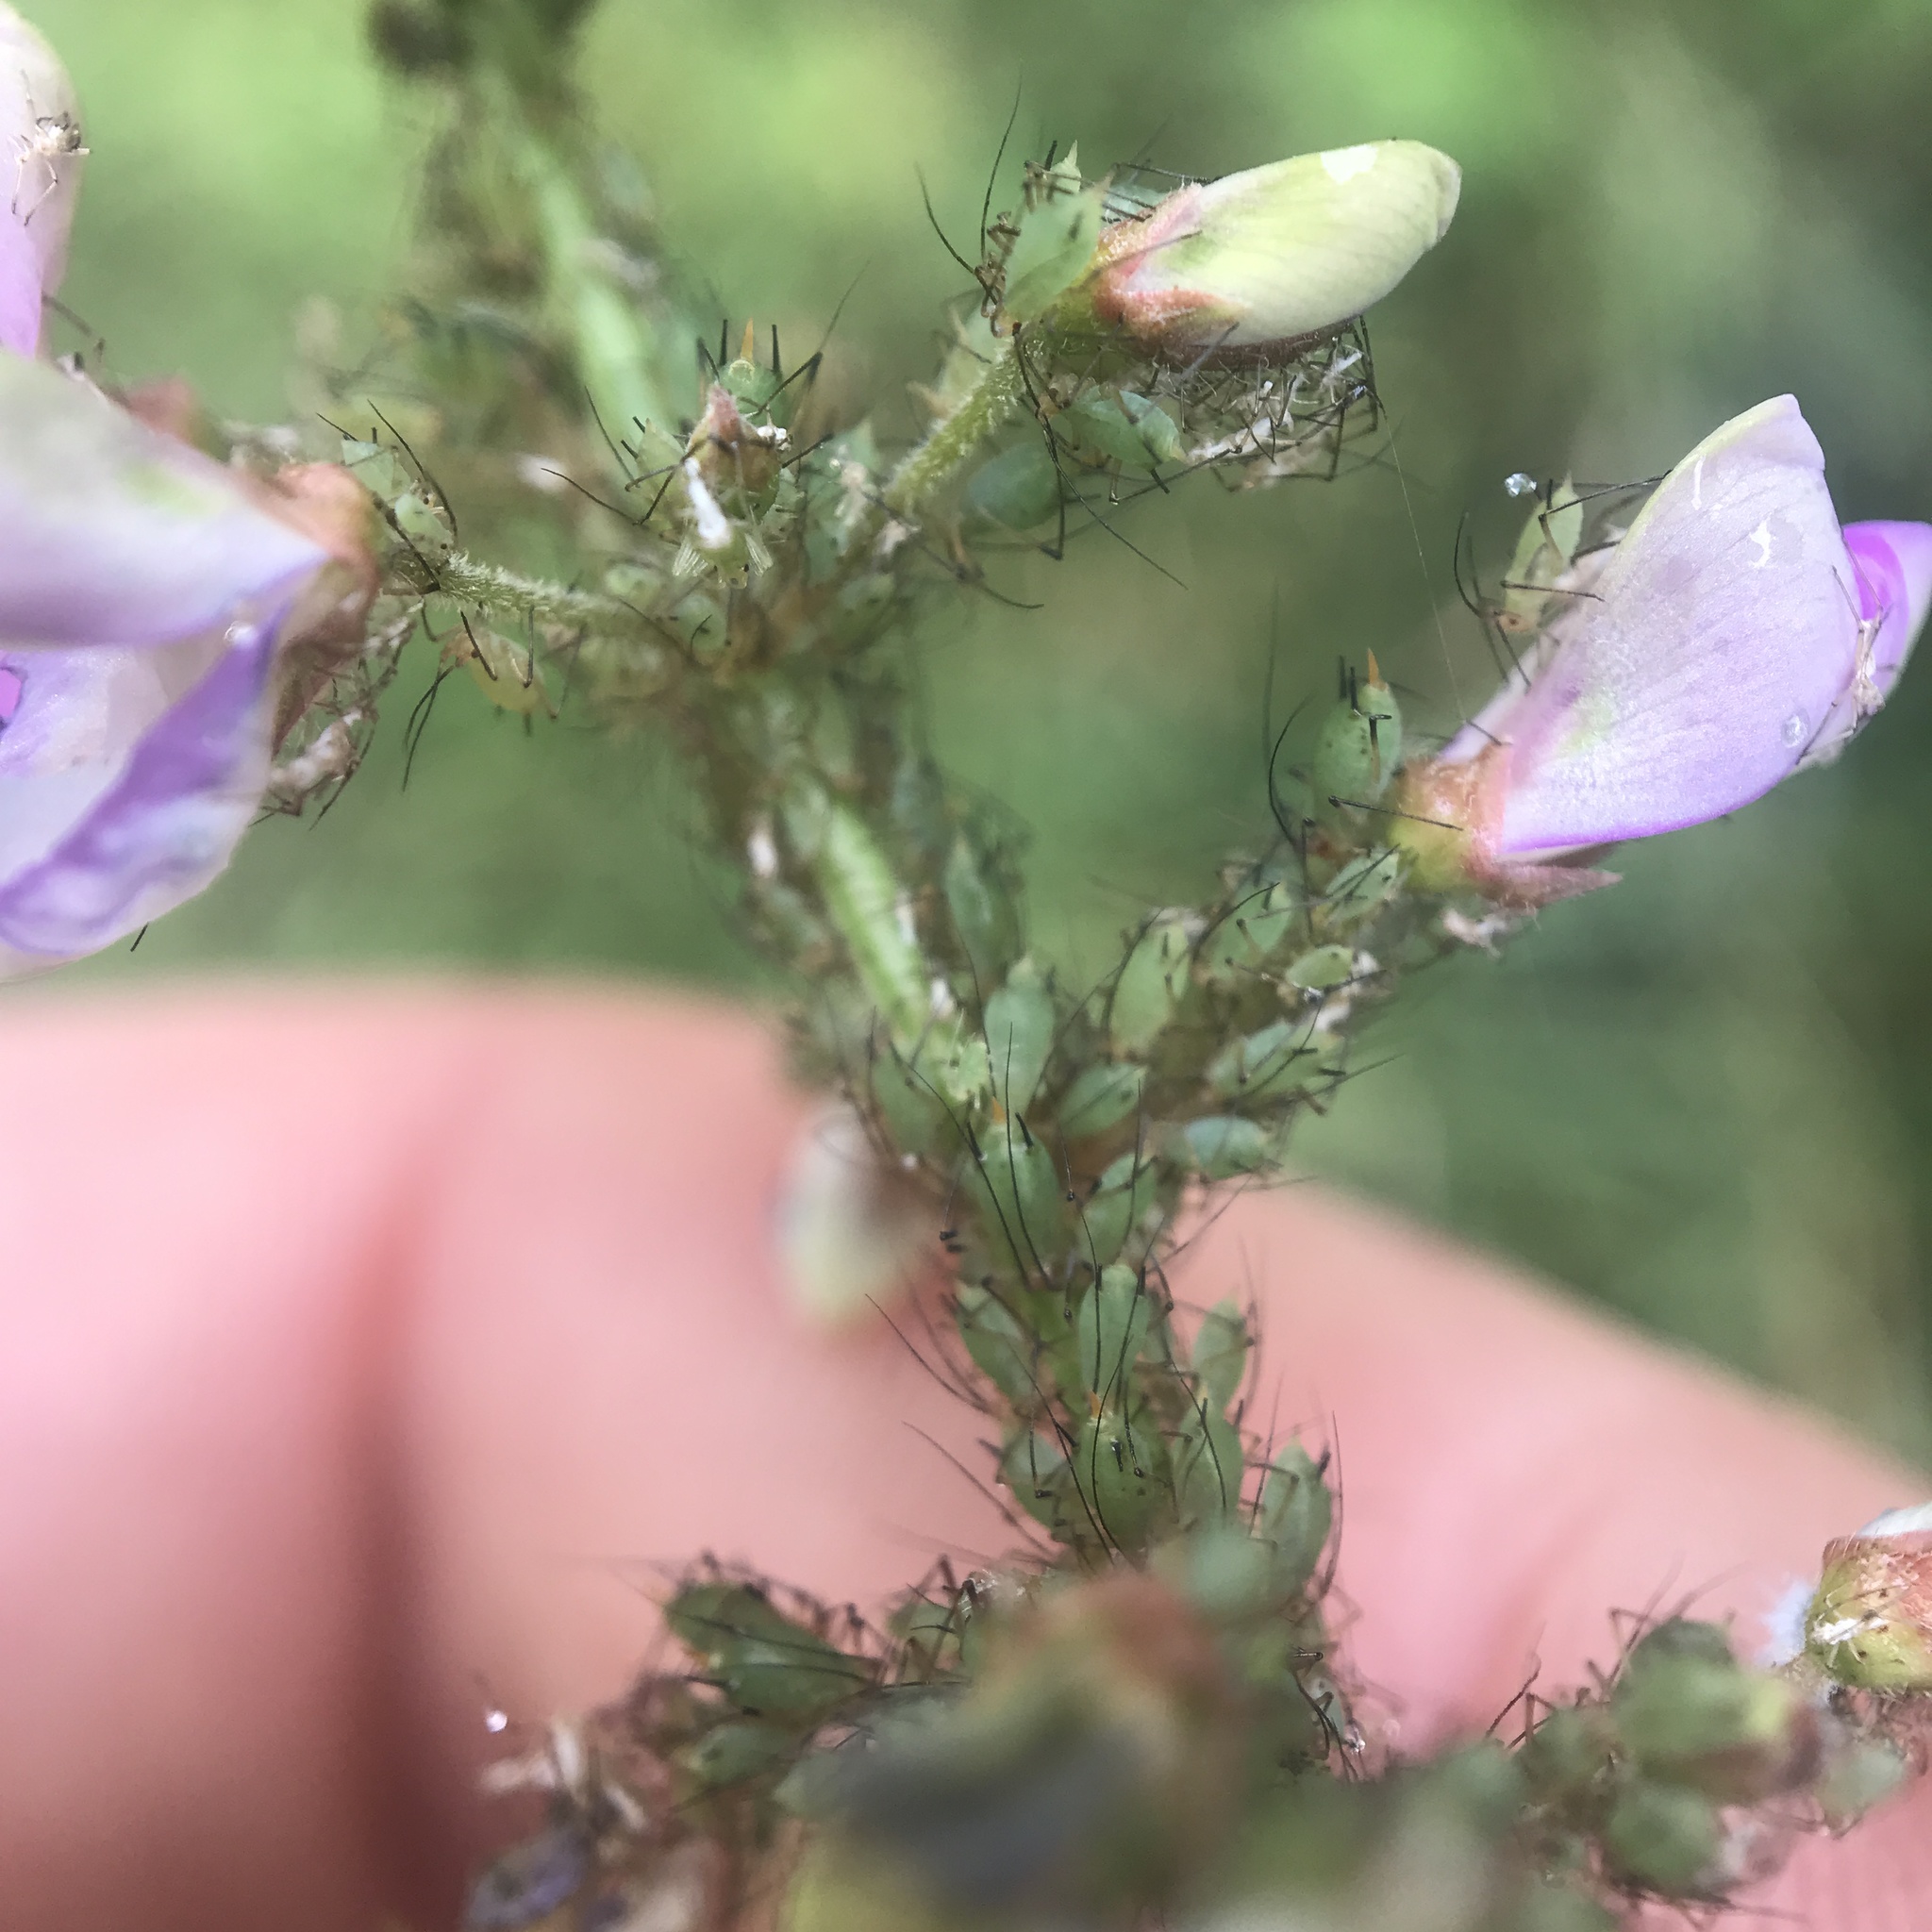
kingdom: Animalia
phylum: Arthropoda
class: Insecta
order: Hemiptera
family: Aphididae
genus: Microparsus
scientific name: Microparsus variabilis
